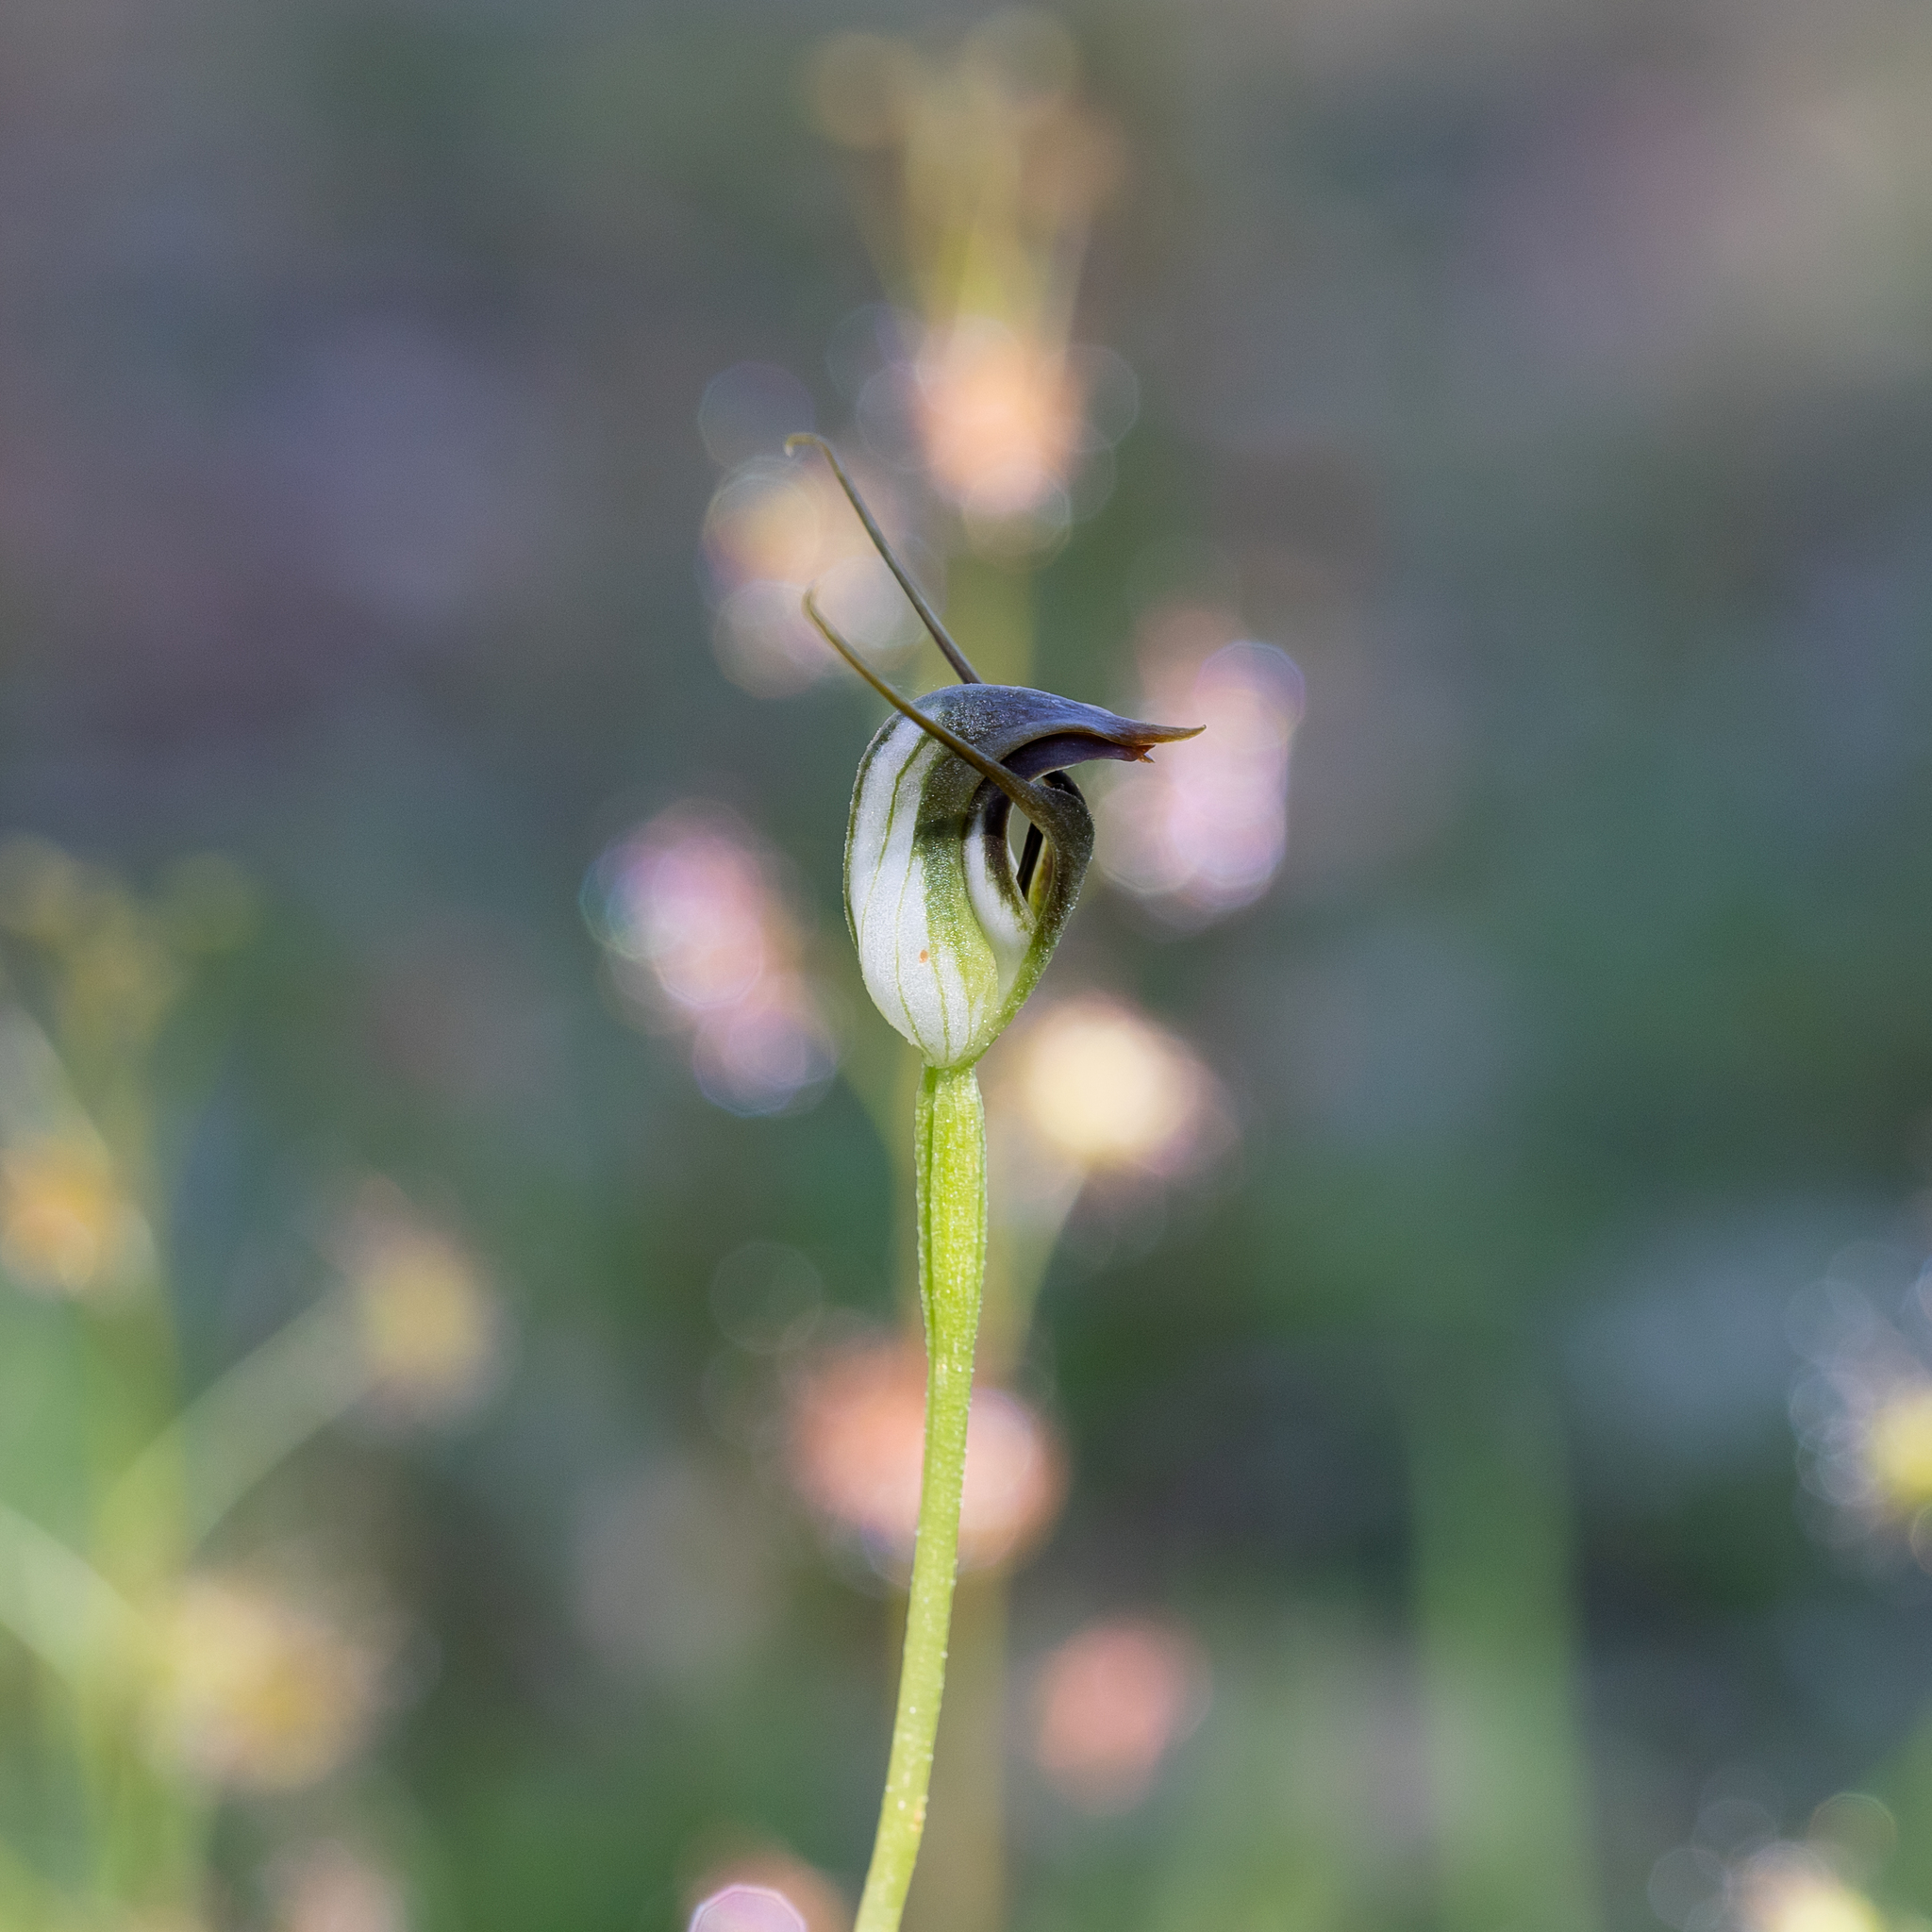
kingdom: Plantae
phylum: Tracheophyta
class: Liliopsida
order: Asparagales
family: Orchidaceae
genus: Pterostylis
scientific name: Pterostylis pedunculata
